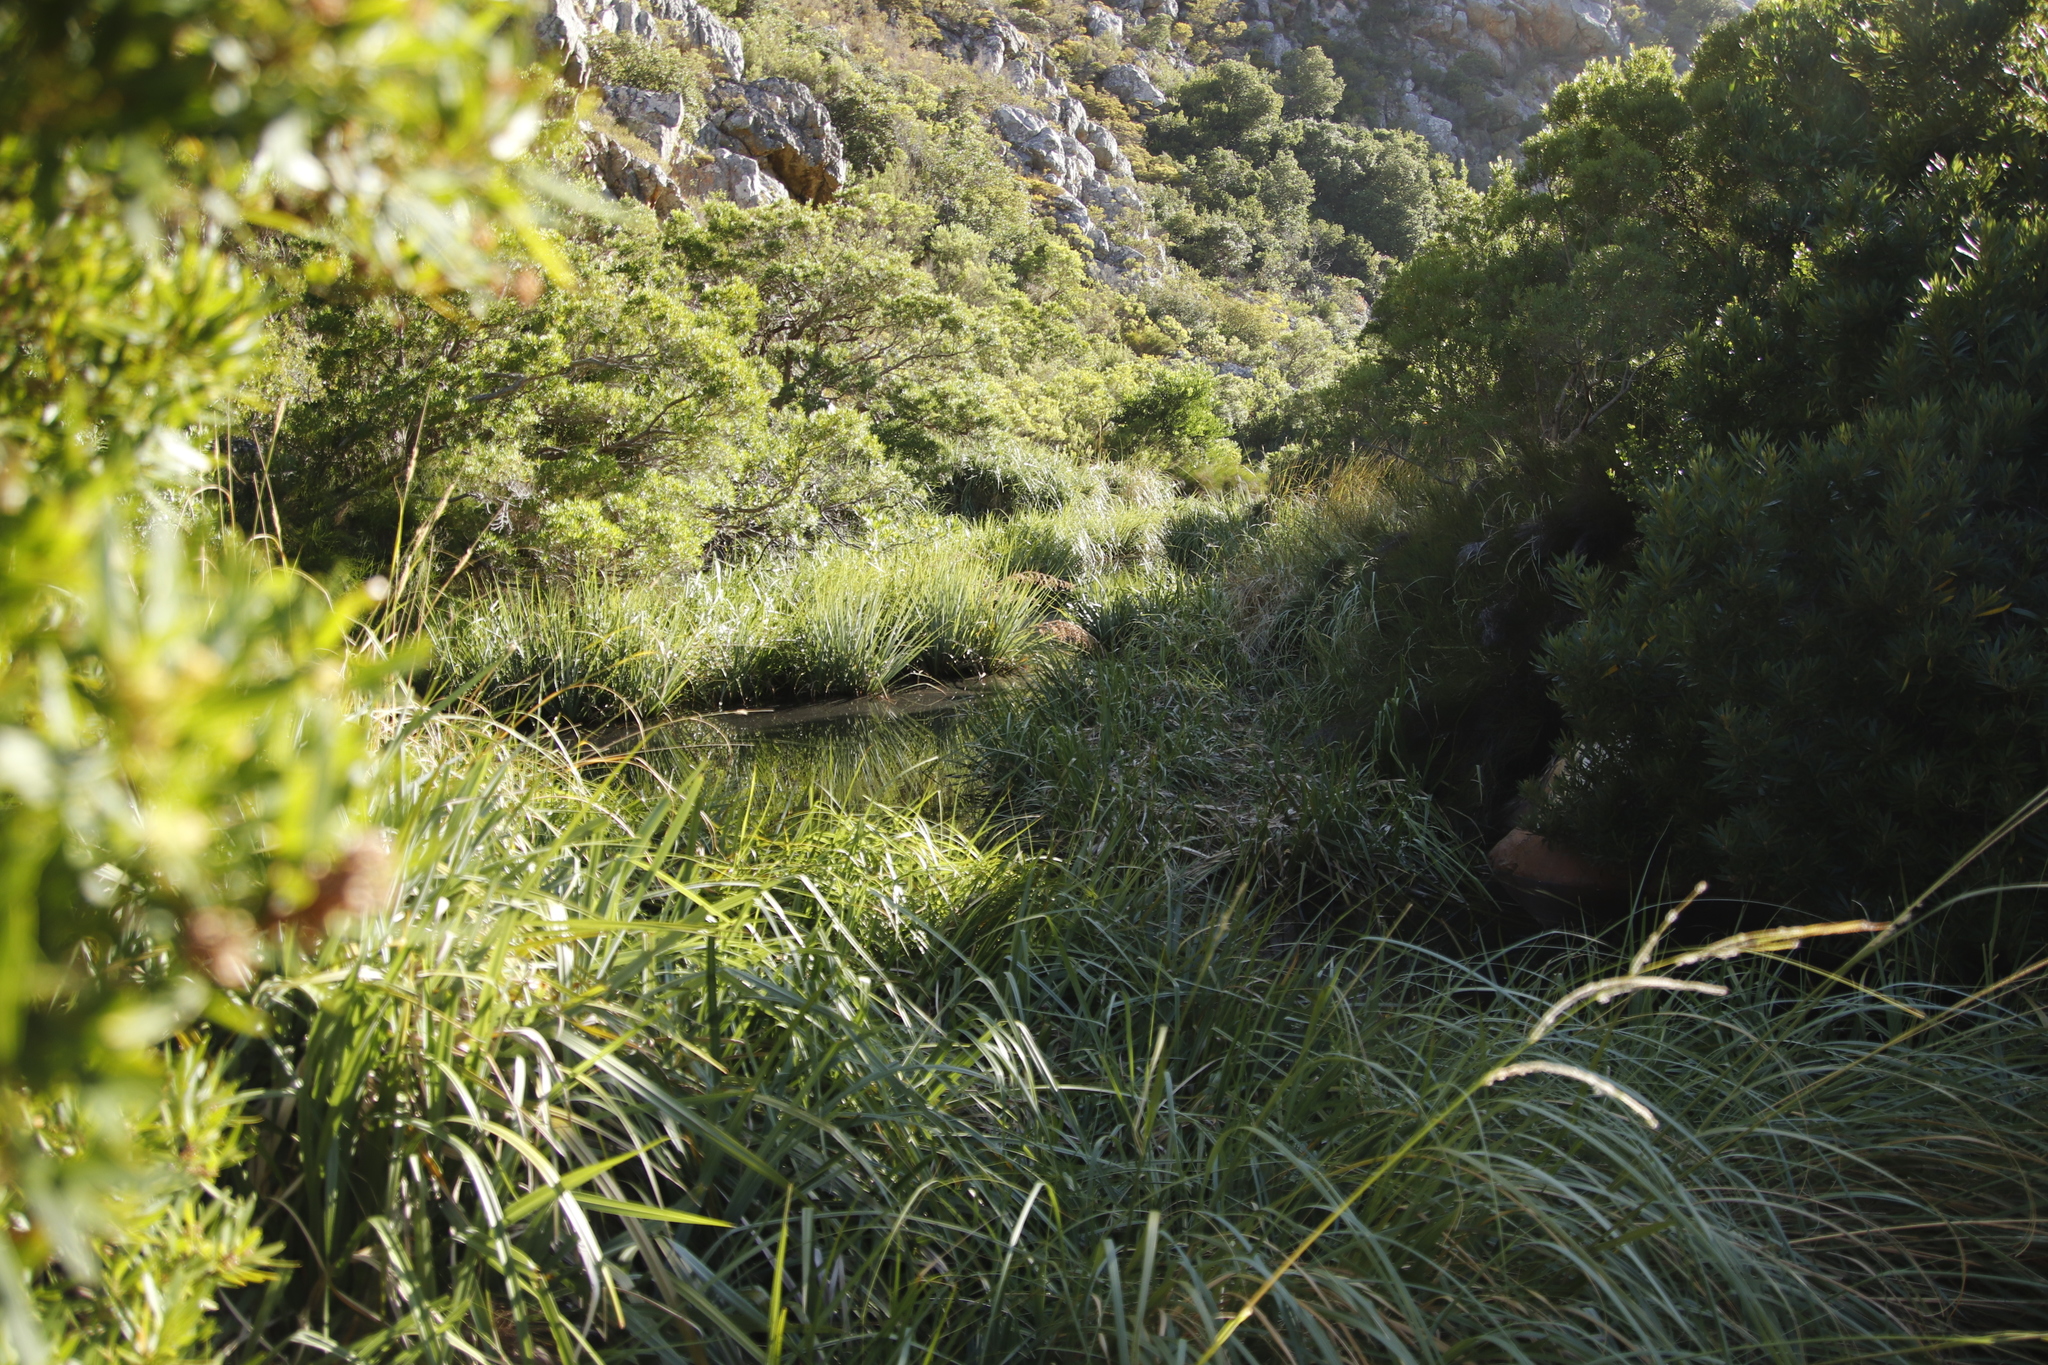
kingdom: Plantae
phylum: Tracheophyta
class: Liliopsida
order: Poales
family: Thurniaceae
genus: Prionium
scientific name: Prionium serratum
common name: Palmiet
